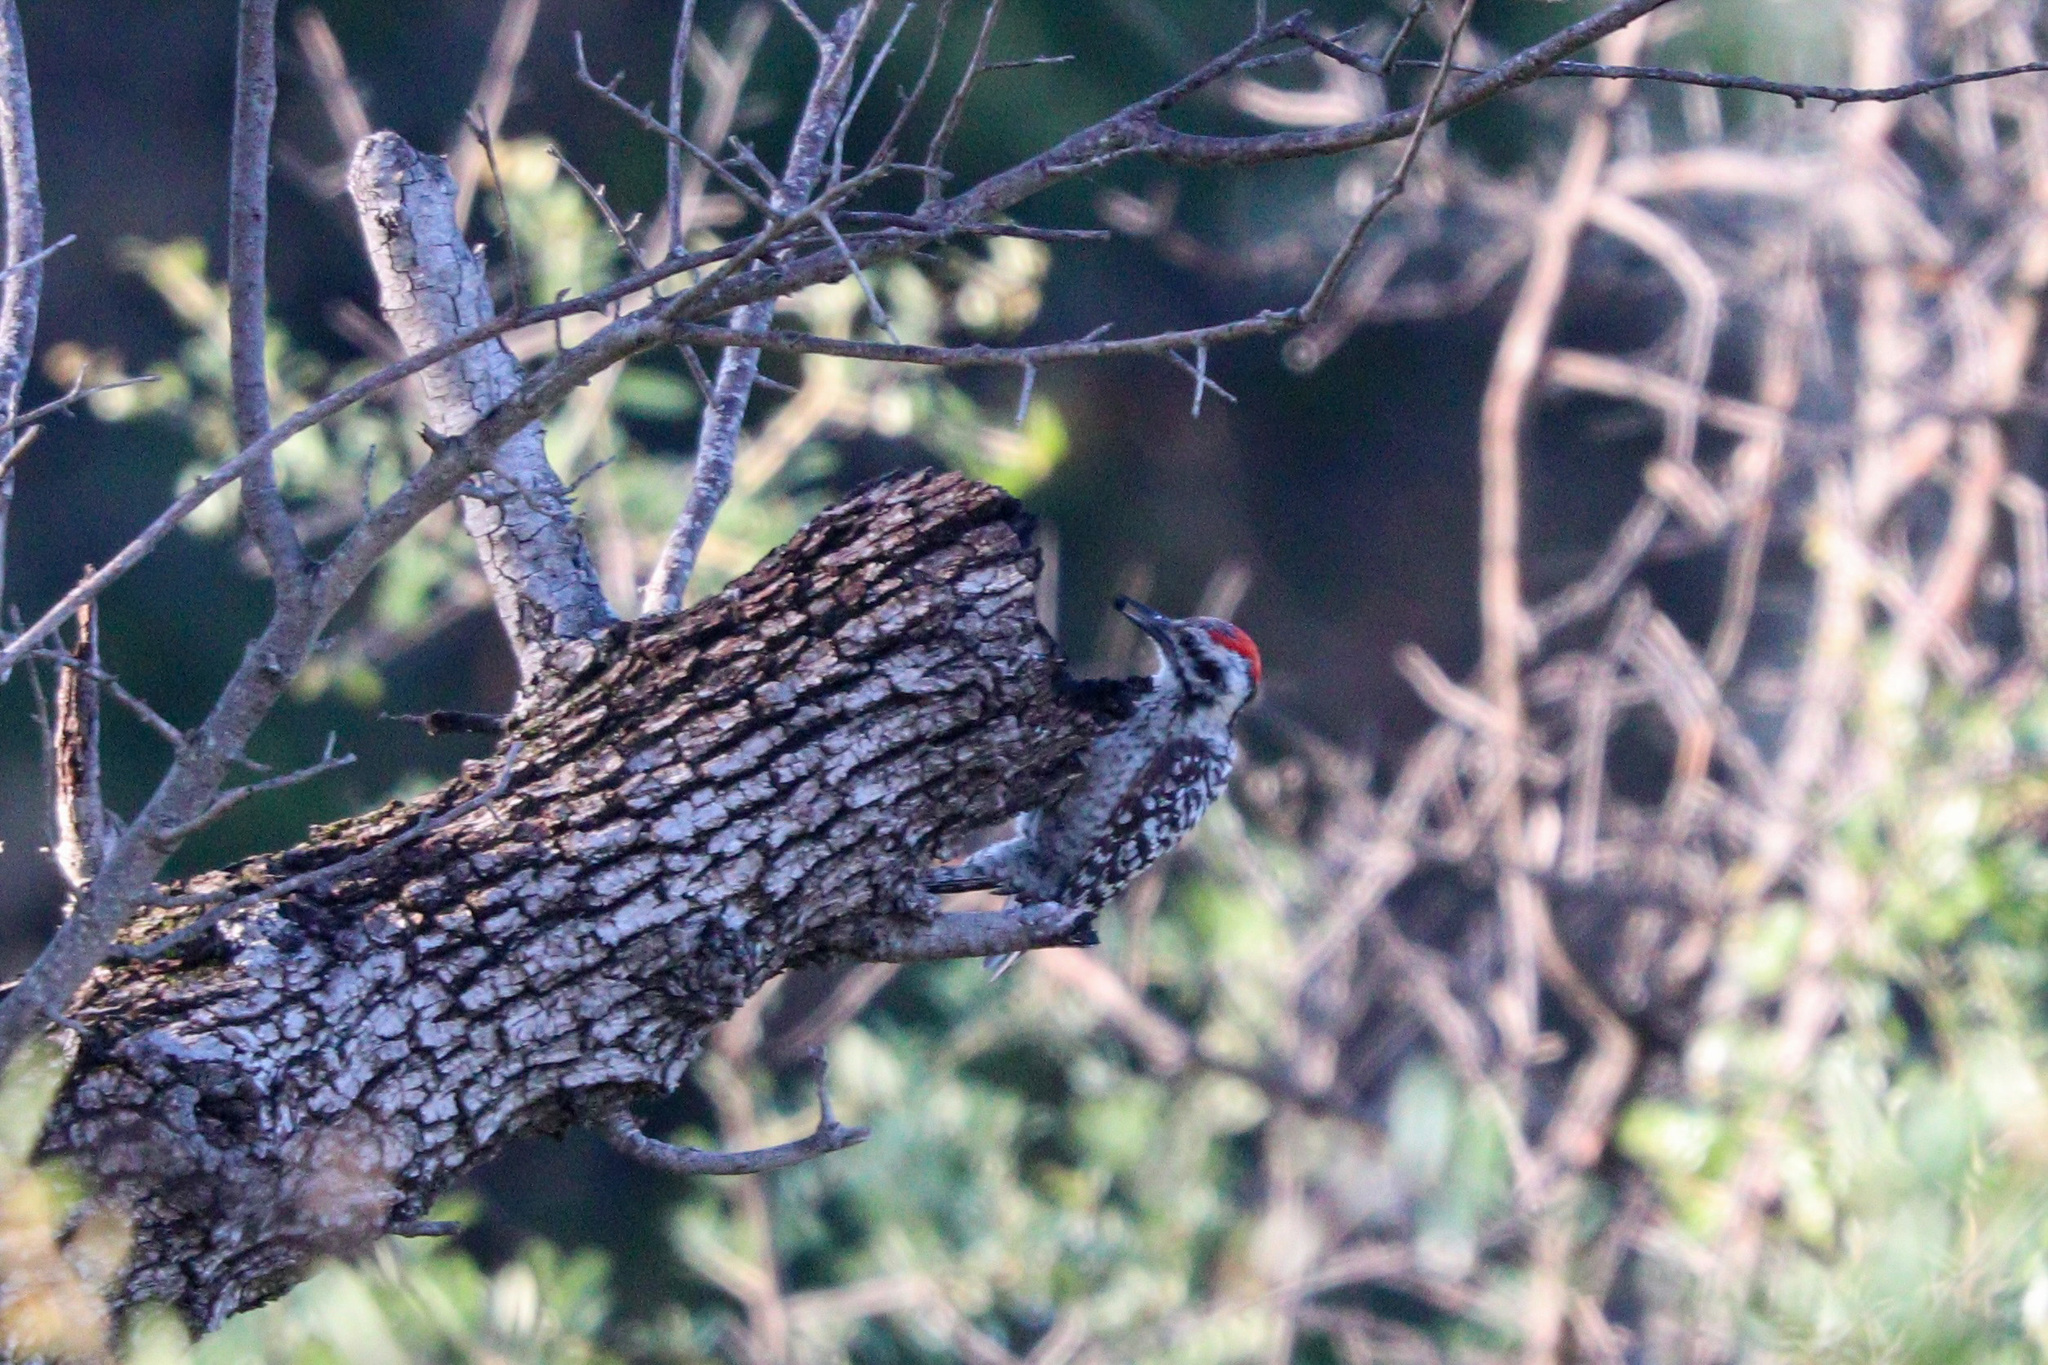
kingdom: Animalia
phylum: Chordata
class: Aves
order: Piciformes
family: Picidae
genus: Dryobates
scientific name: Dryobates scalaris
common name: Ladder-backed woodpecker
